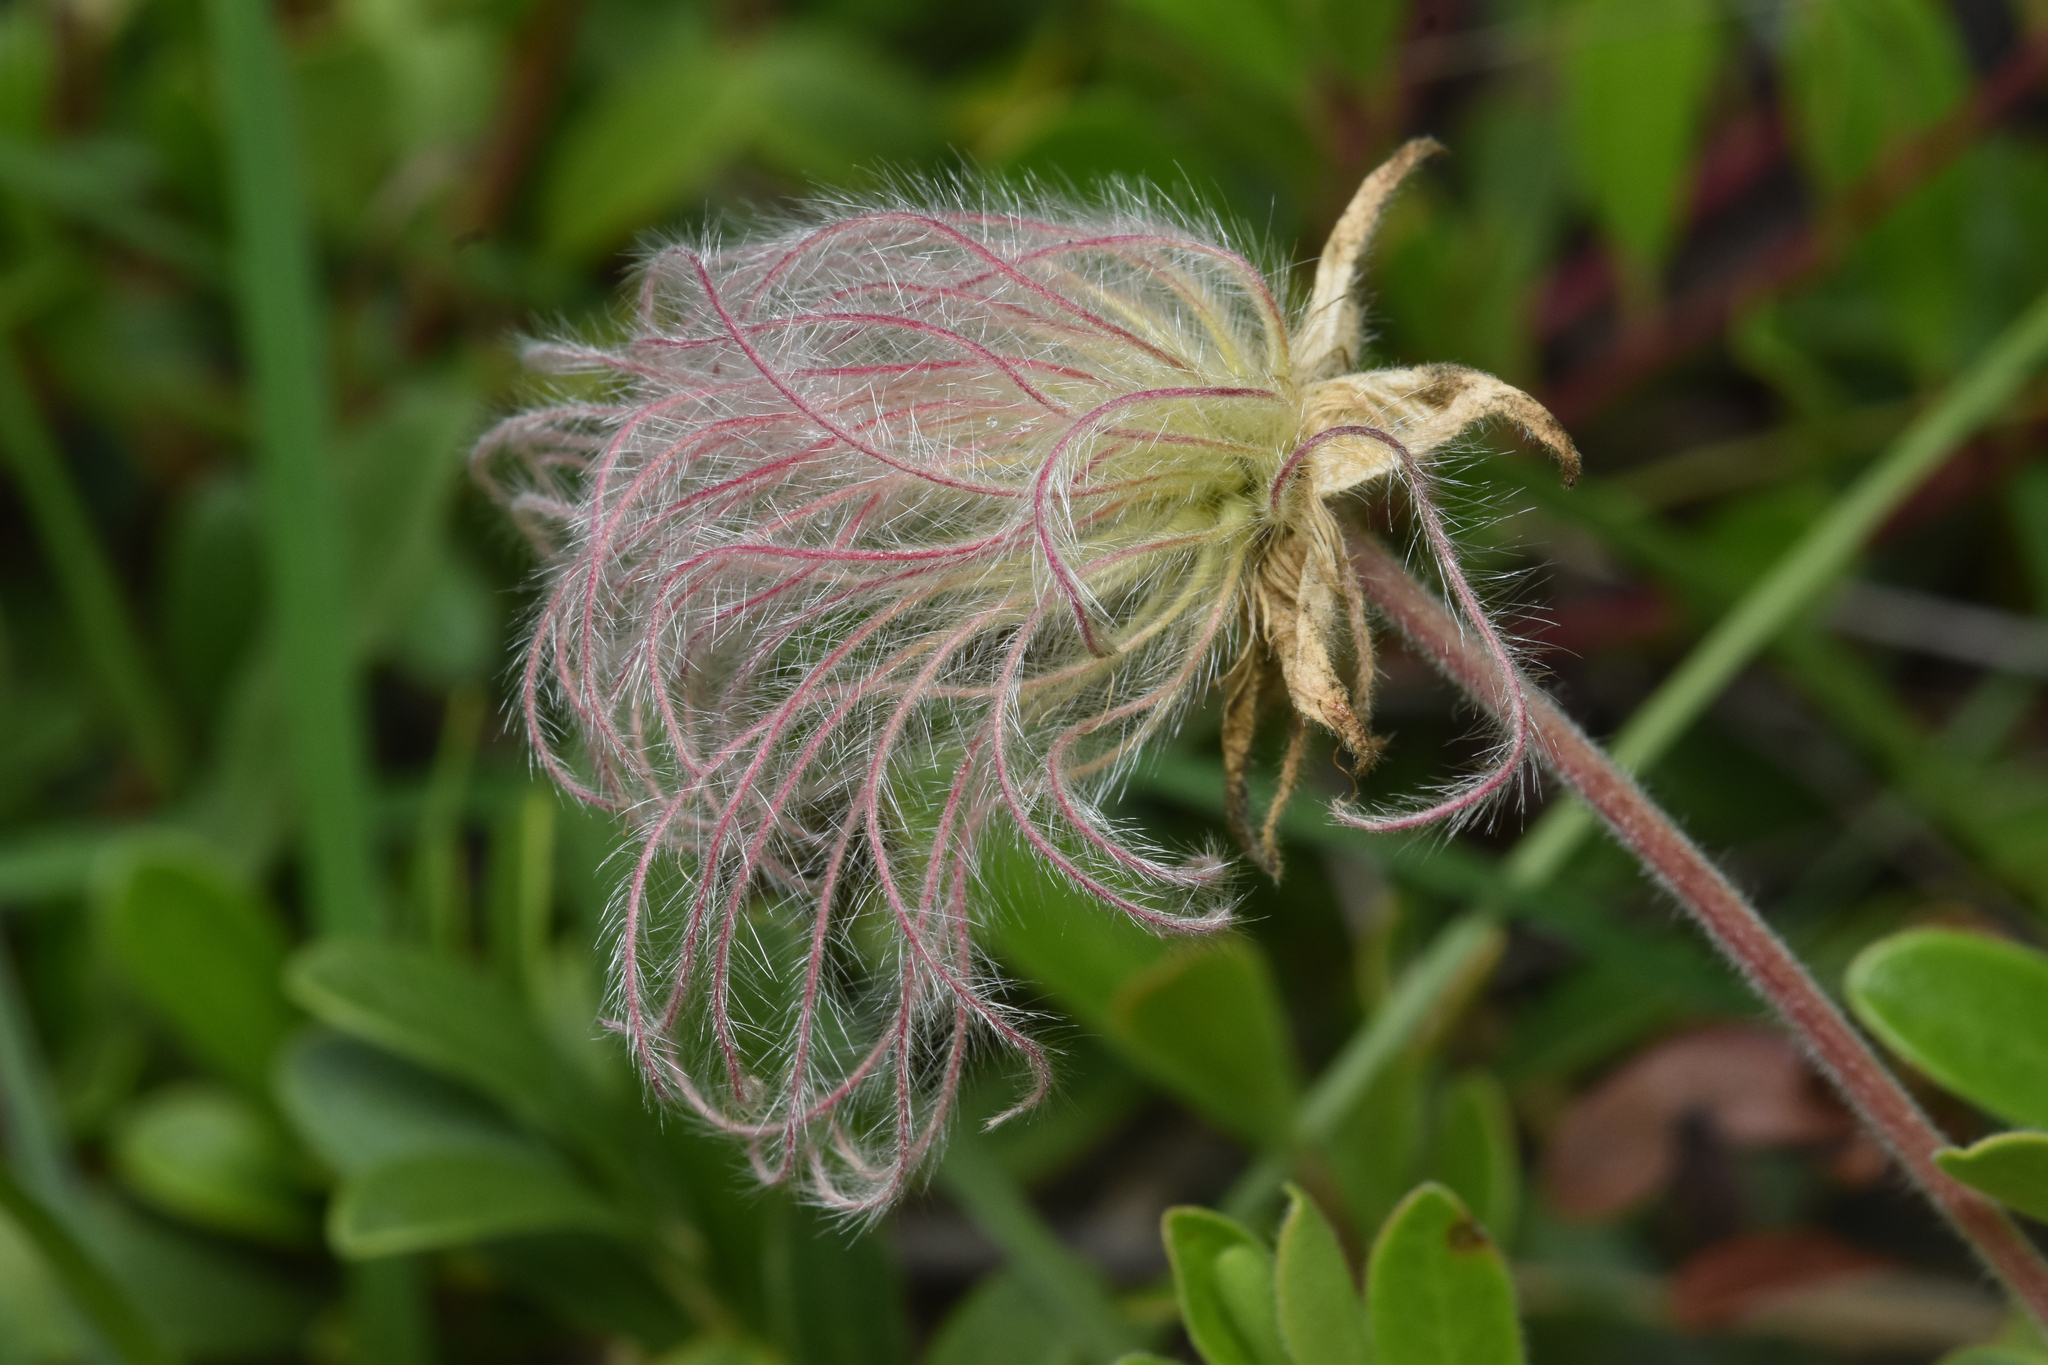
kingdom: Plantae
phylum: Tracheophyta
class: Magnoliopsida
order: Rosales
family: Rosaceae
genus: Geum
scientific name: Geum triflorum
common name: Old man's whiskers
